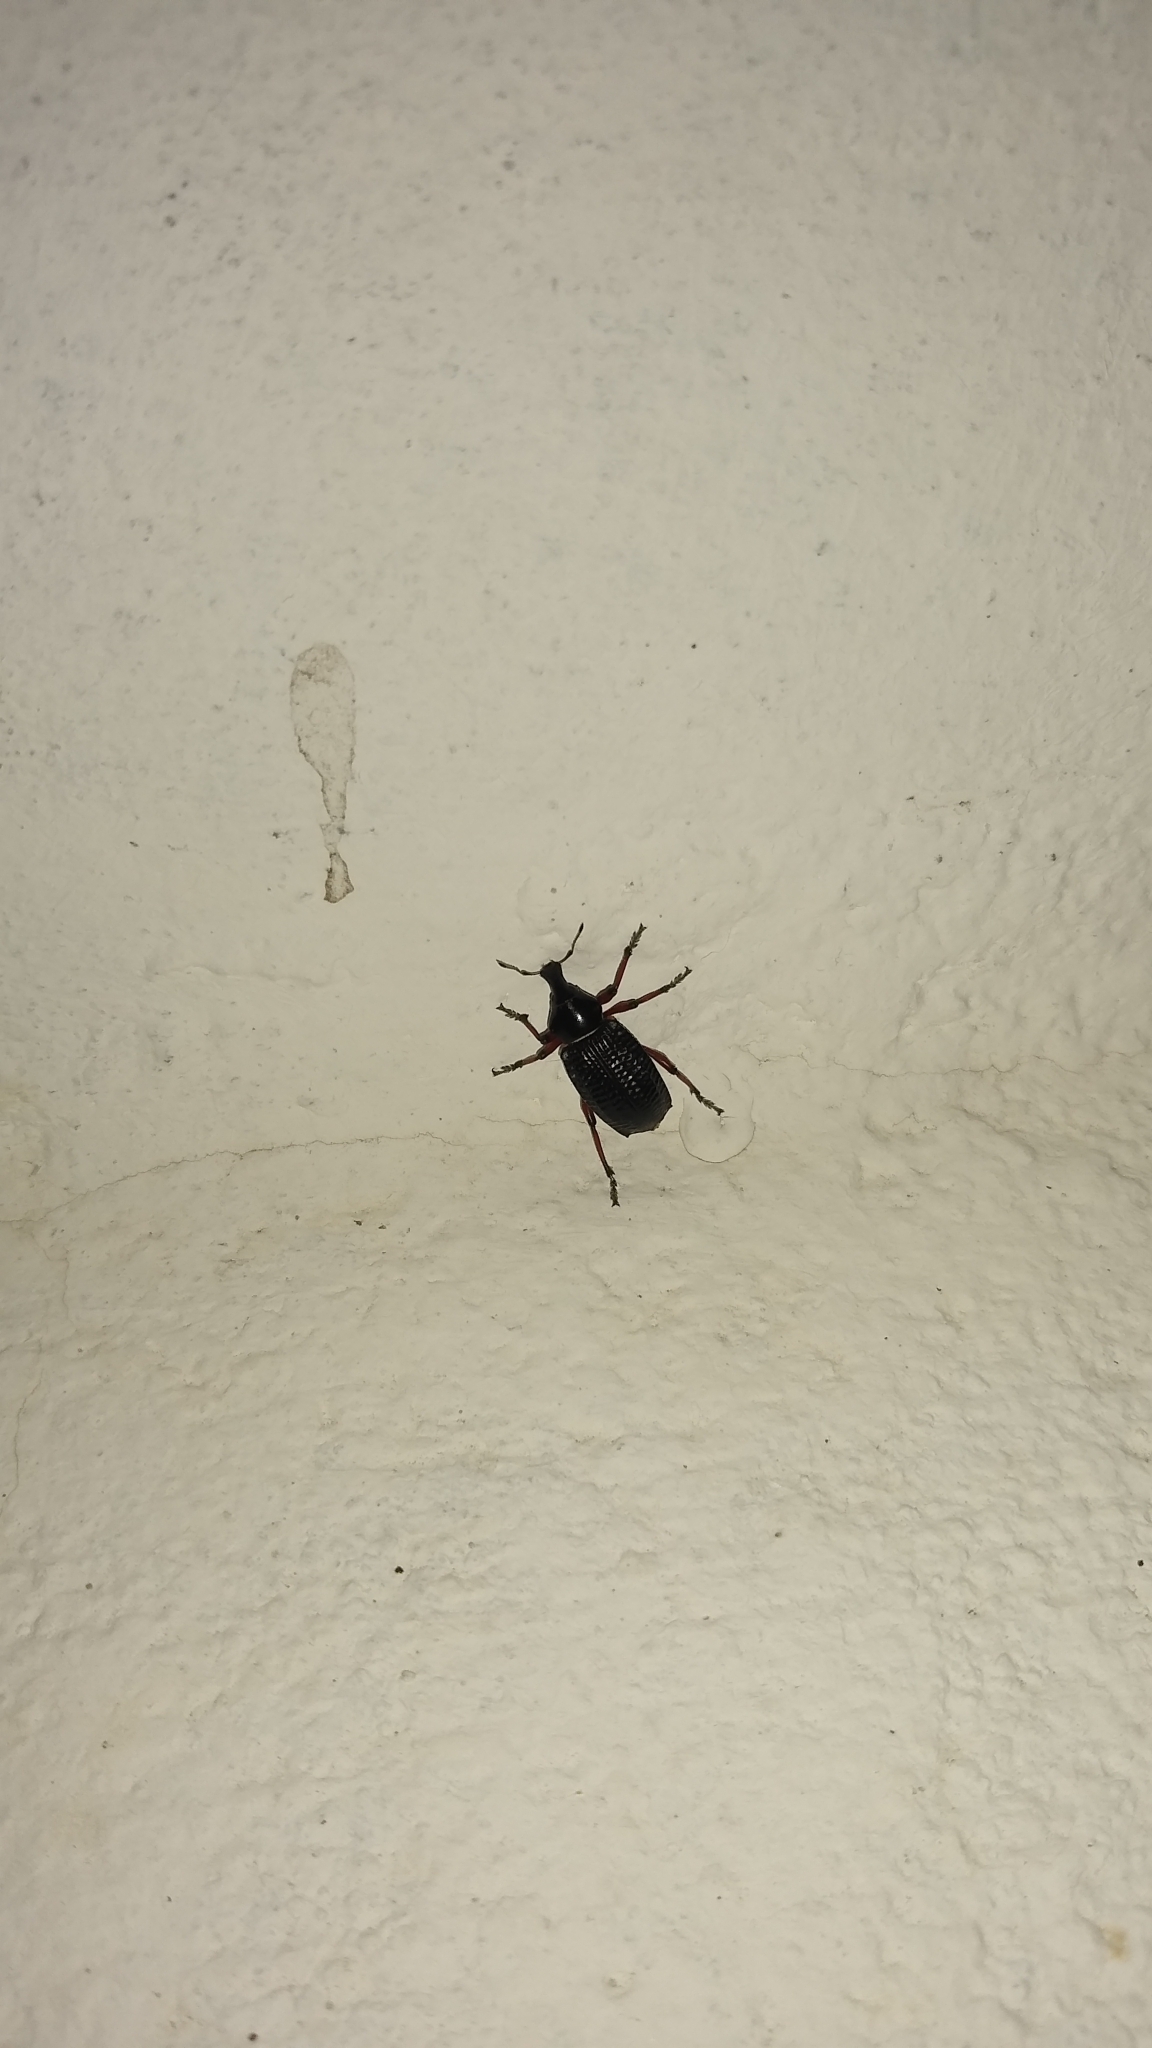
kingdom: Animalia
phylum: Arthropoda
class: Insecta
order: Coleoptera
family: Curculionidae
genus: Cylydrorhinus
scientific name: Cylydrorhinus angulatus
